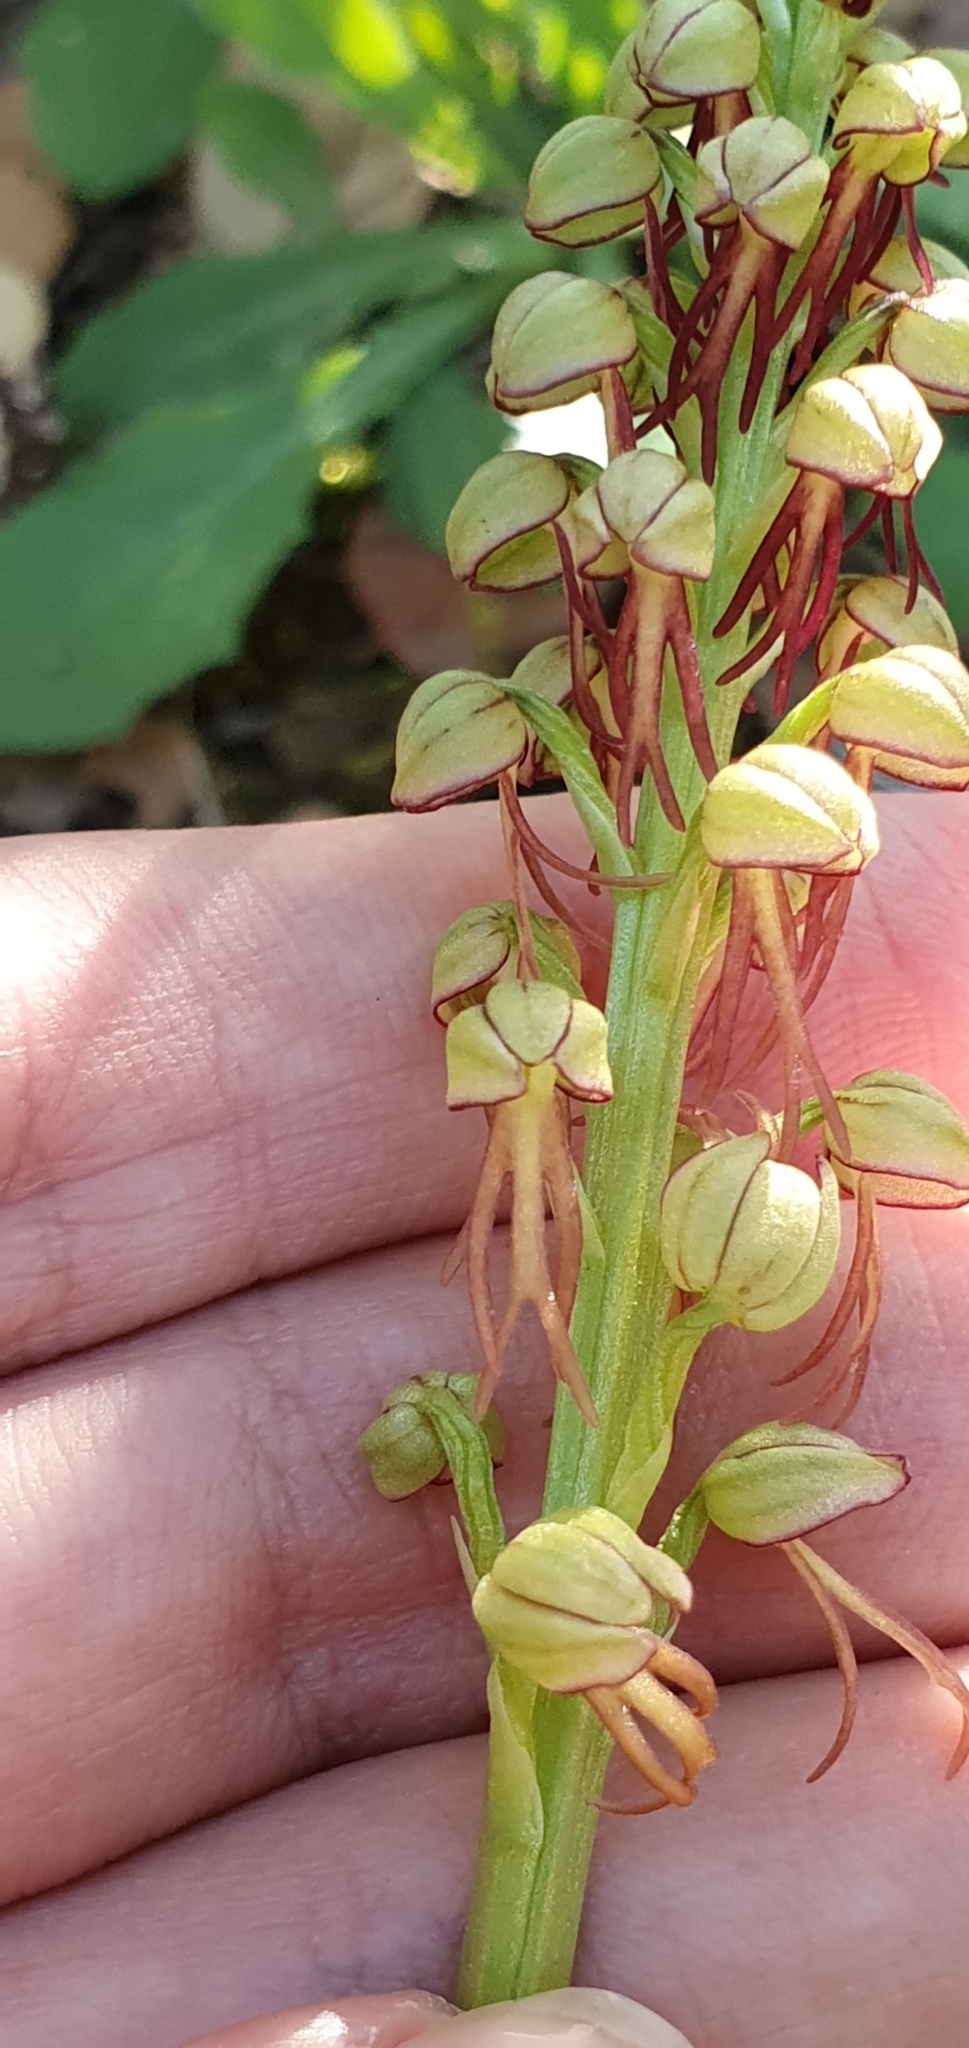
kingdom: Plantae
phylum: Tracheophyta
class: Liliopsida
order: Asparagales
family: Orchidaceae
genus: Orchis
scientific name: Orchis anthropophora
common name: Man orchid
